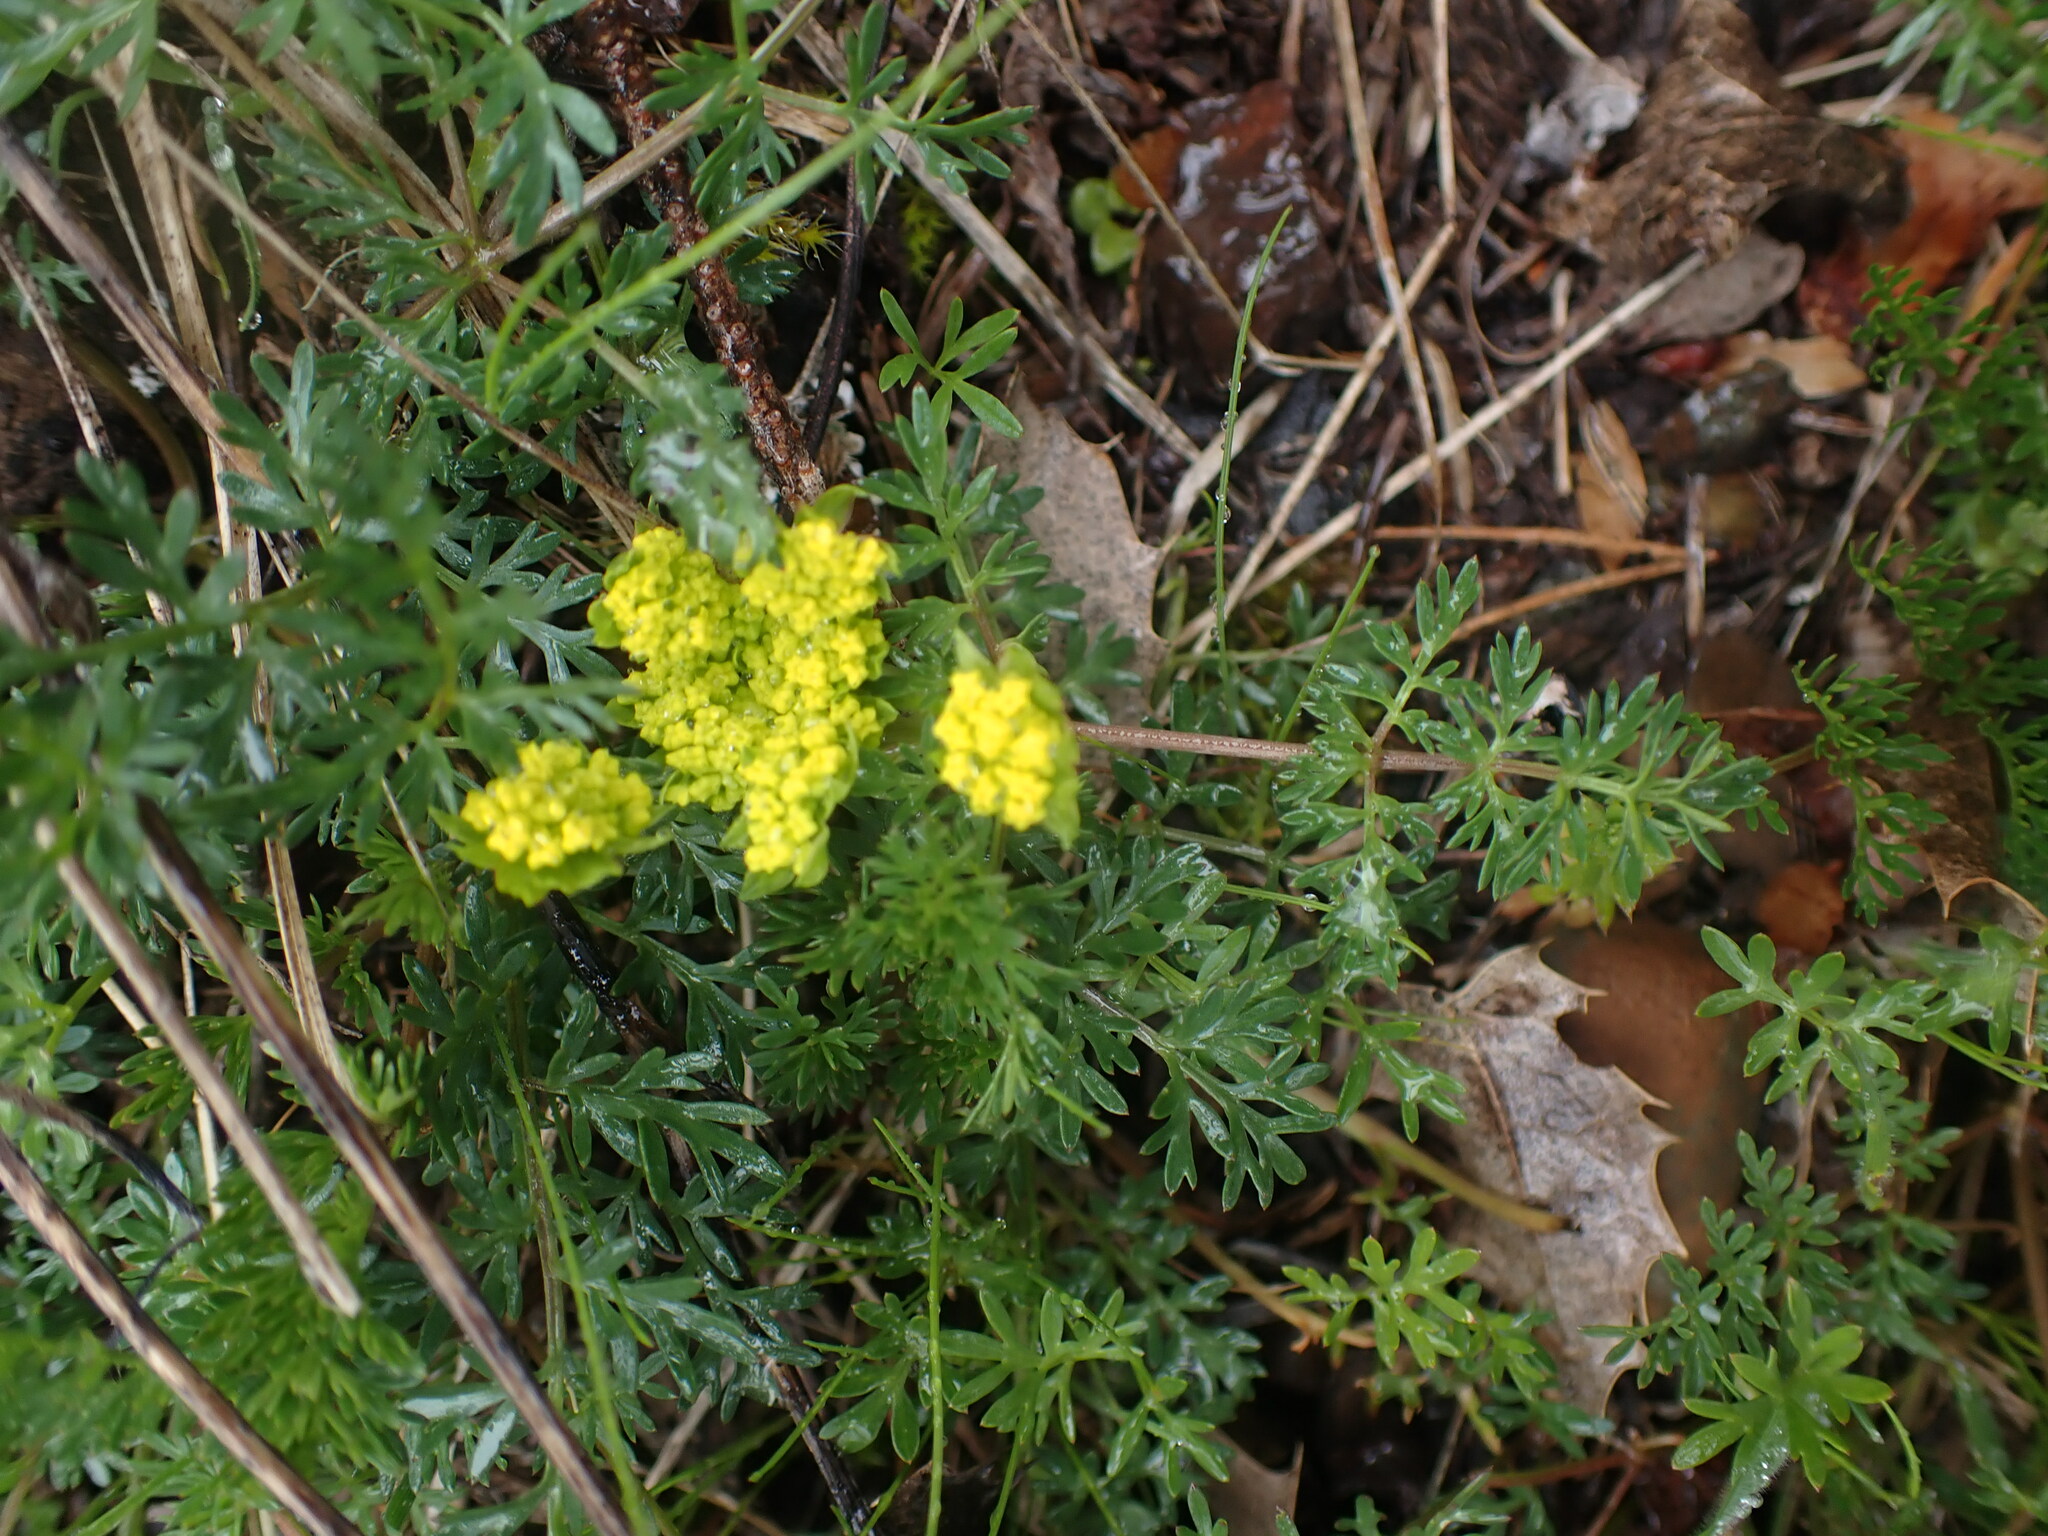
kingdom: Plantae
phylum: Tracheophyta
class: Magnoliopsida
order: Apiales
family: Apiaceae
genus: Lomatium
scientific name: Lomatium utriculatum
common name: Fine-leaf desert-parsley
